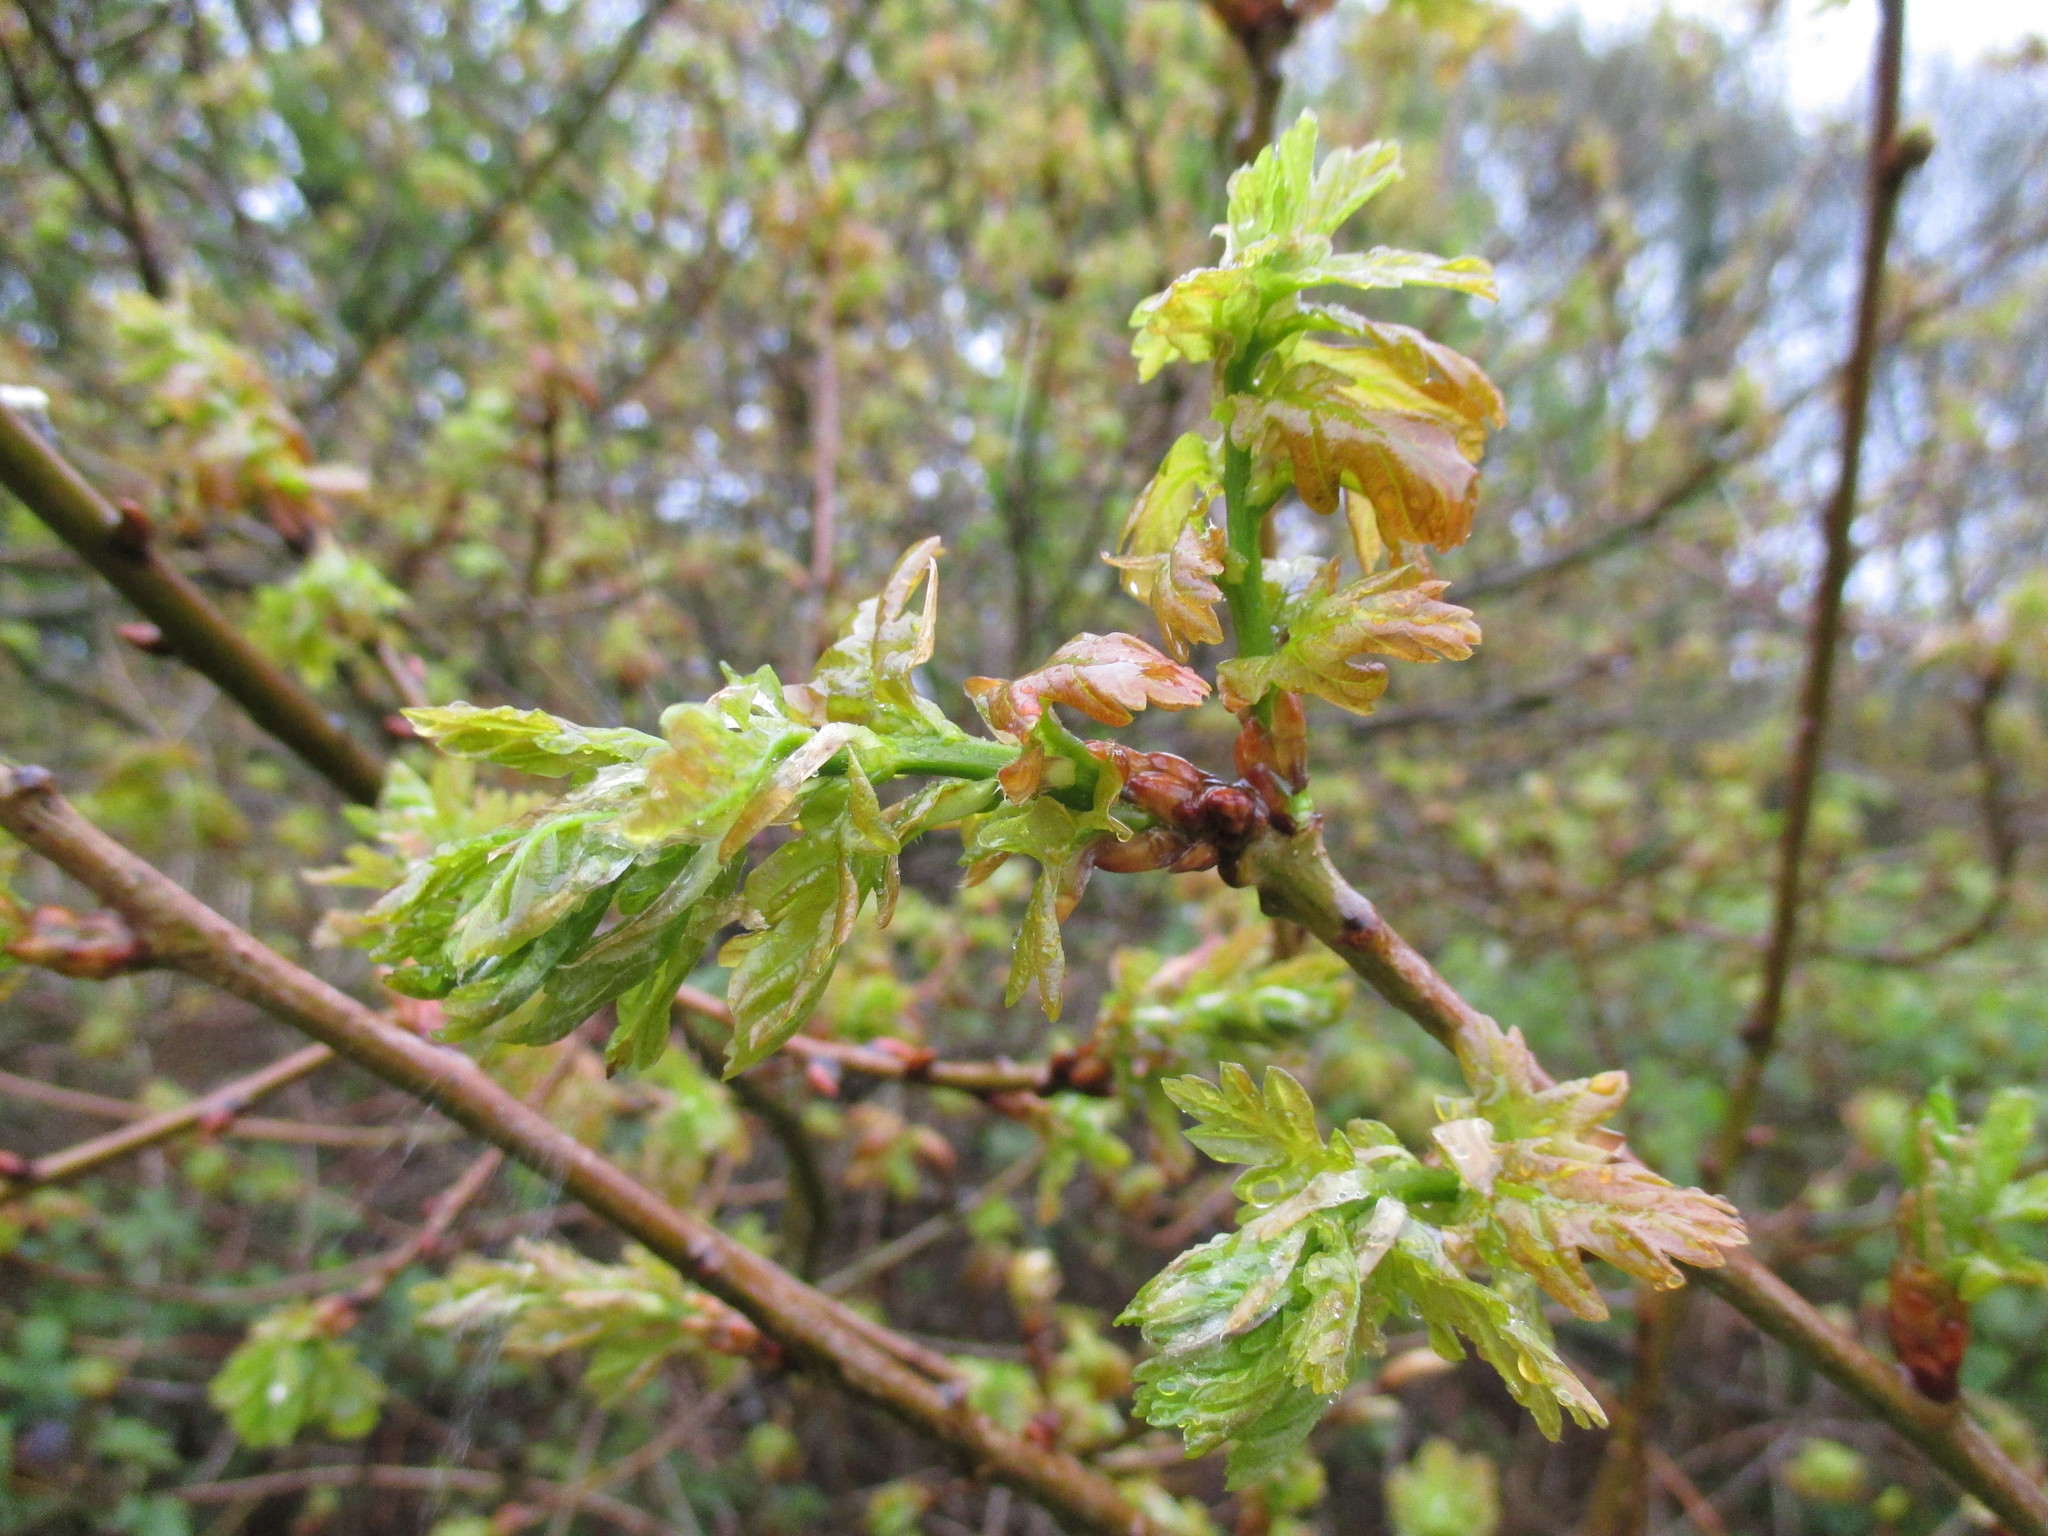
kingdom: Plantae
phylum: Tracheophyta
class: Magnoliopsida
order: Fagales
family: Fagaceae
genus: Quercus
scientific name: Quercus robur
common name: Pedunculate oak
